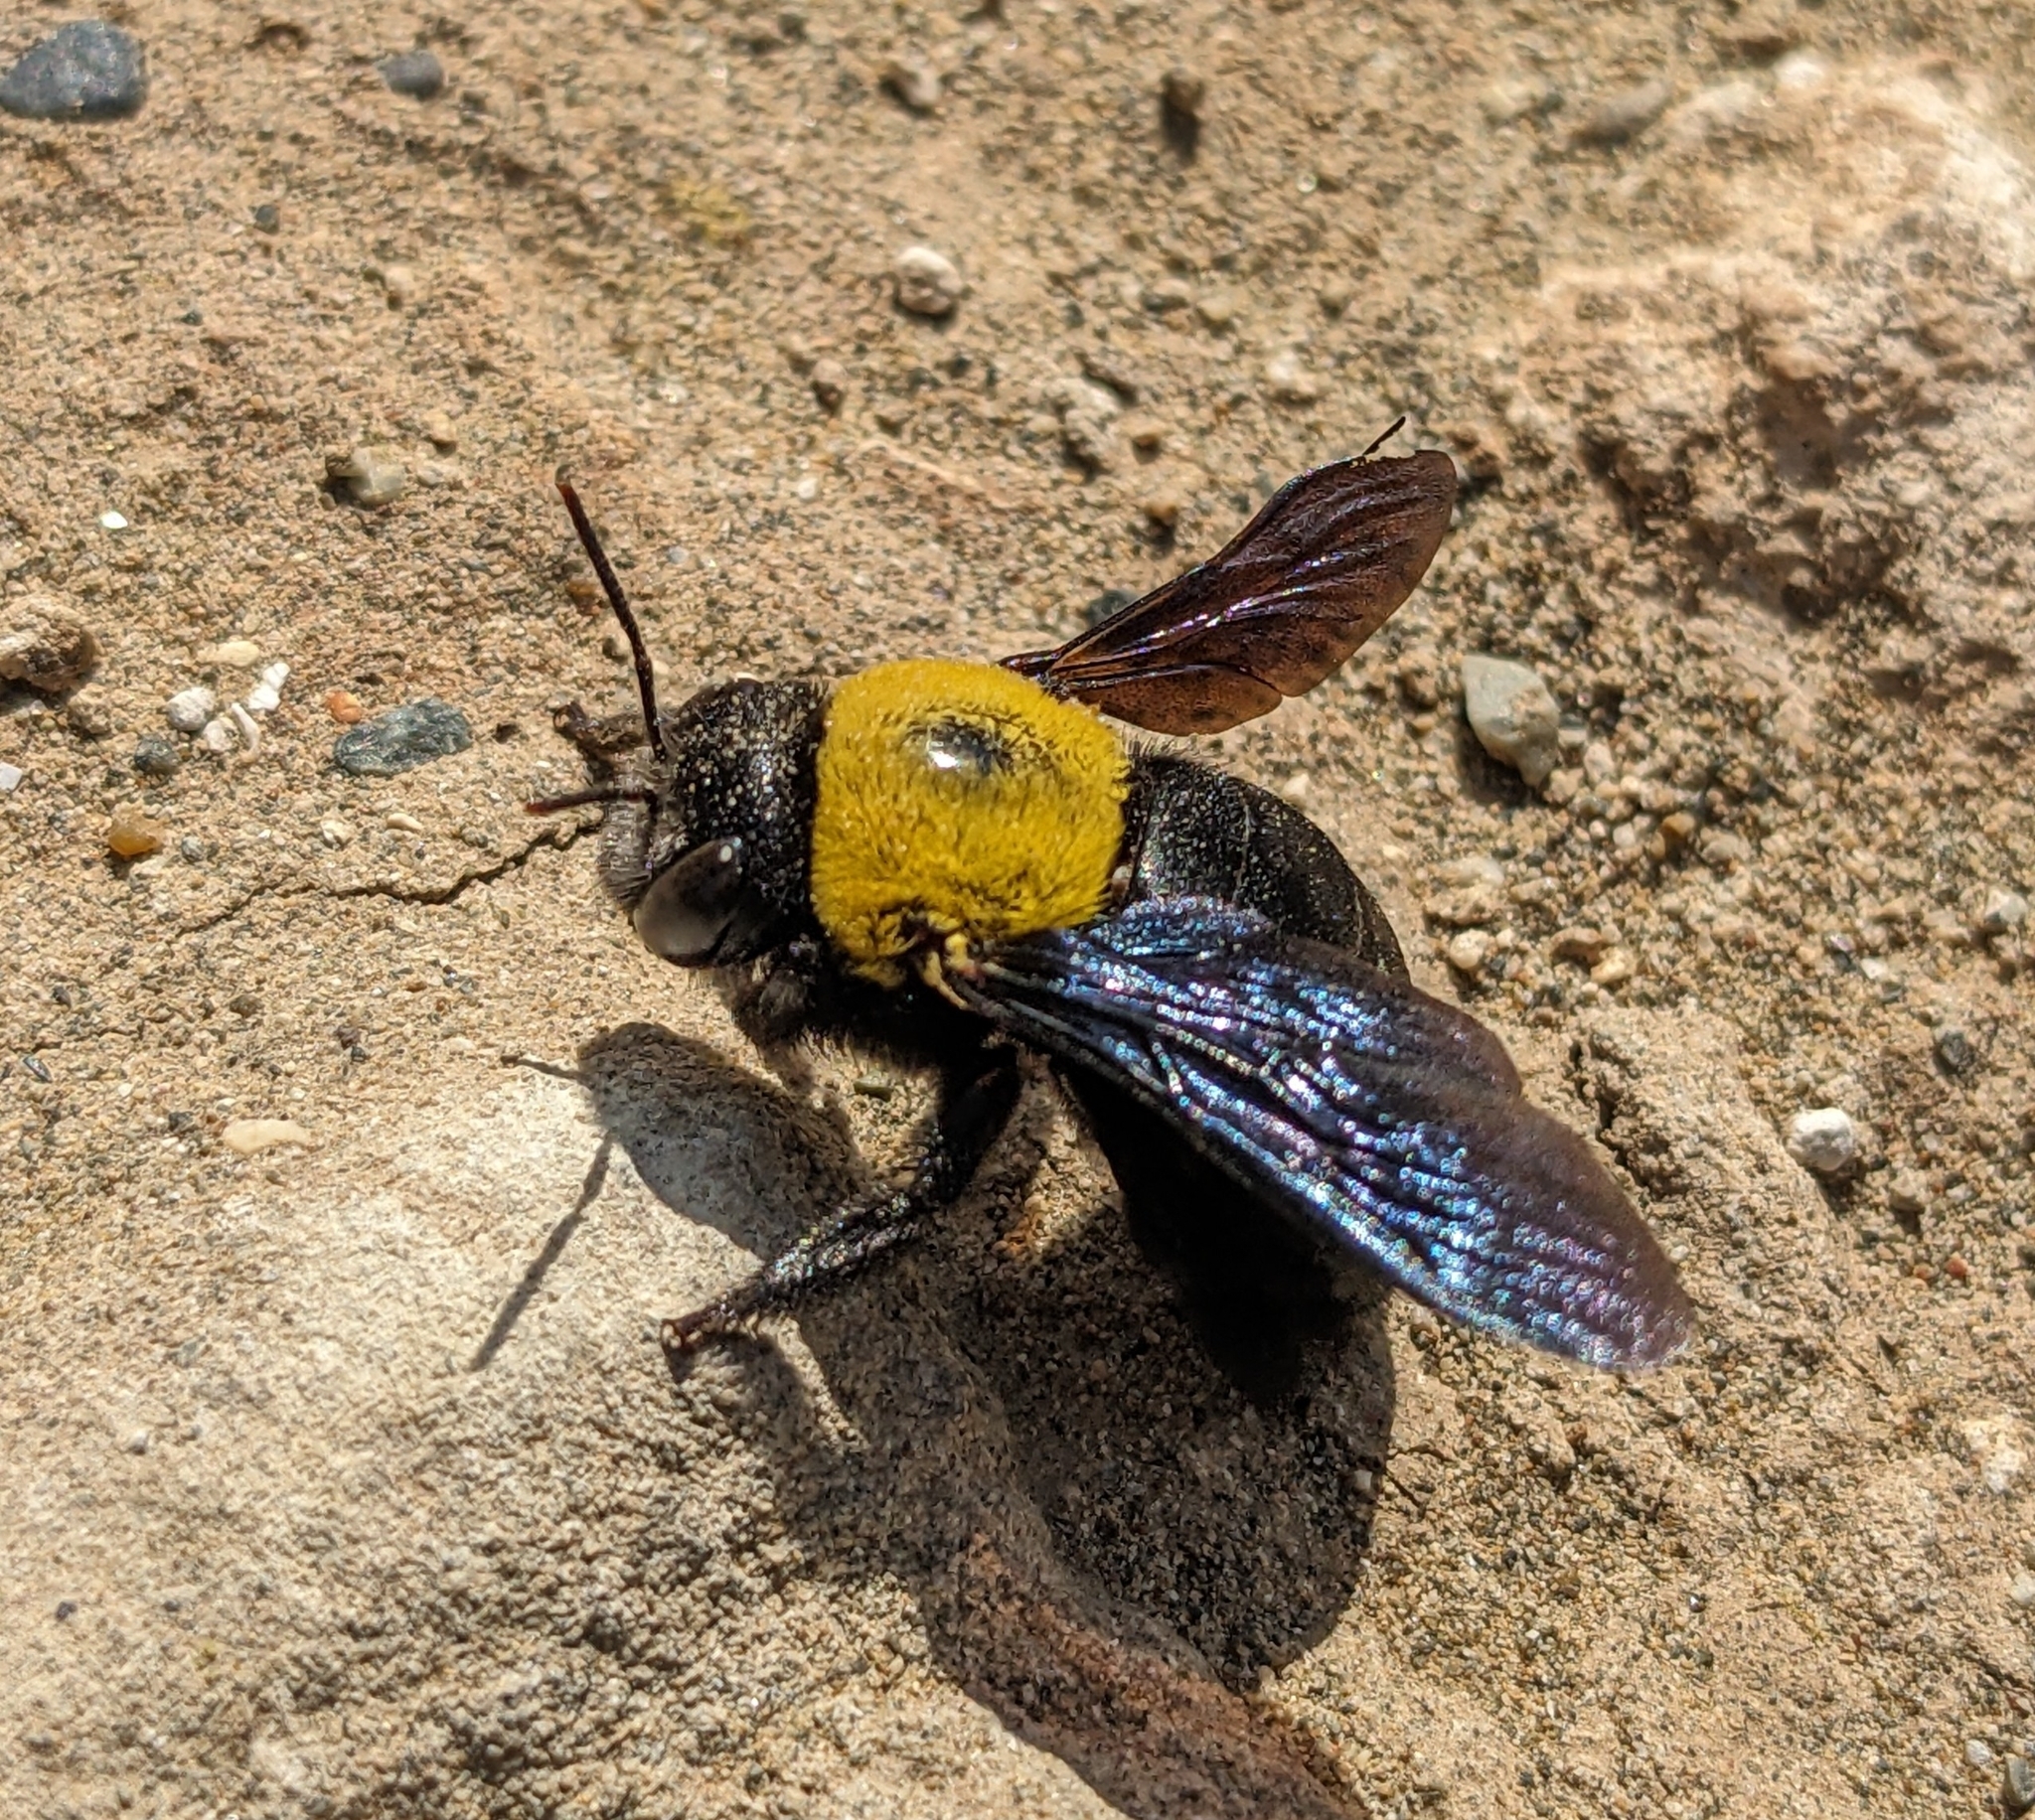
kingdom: Animalia
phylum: Arthropoda
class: Insecta
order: Hymenoptera
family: Apidae
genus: Xylocopa
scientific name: Xylocopa pubescens
